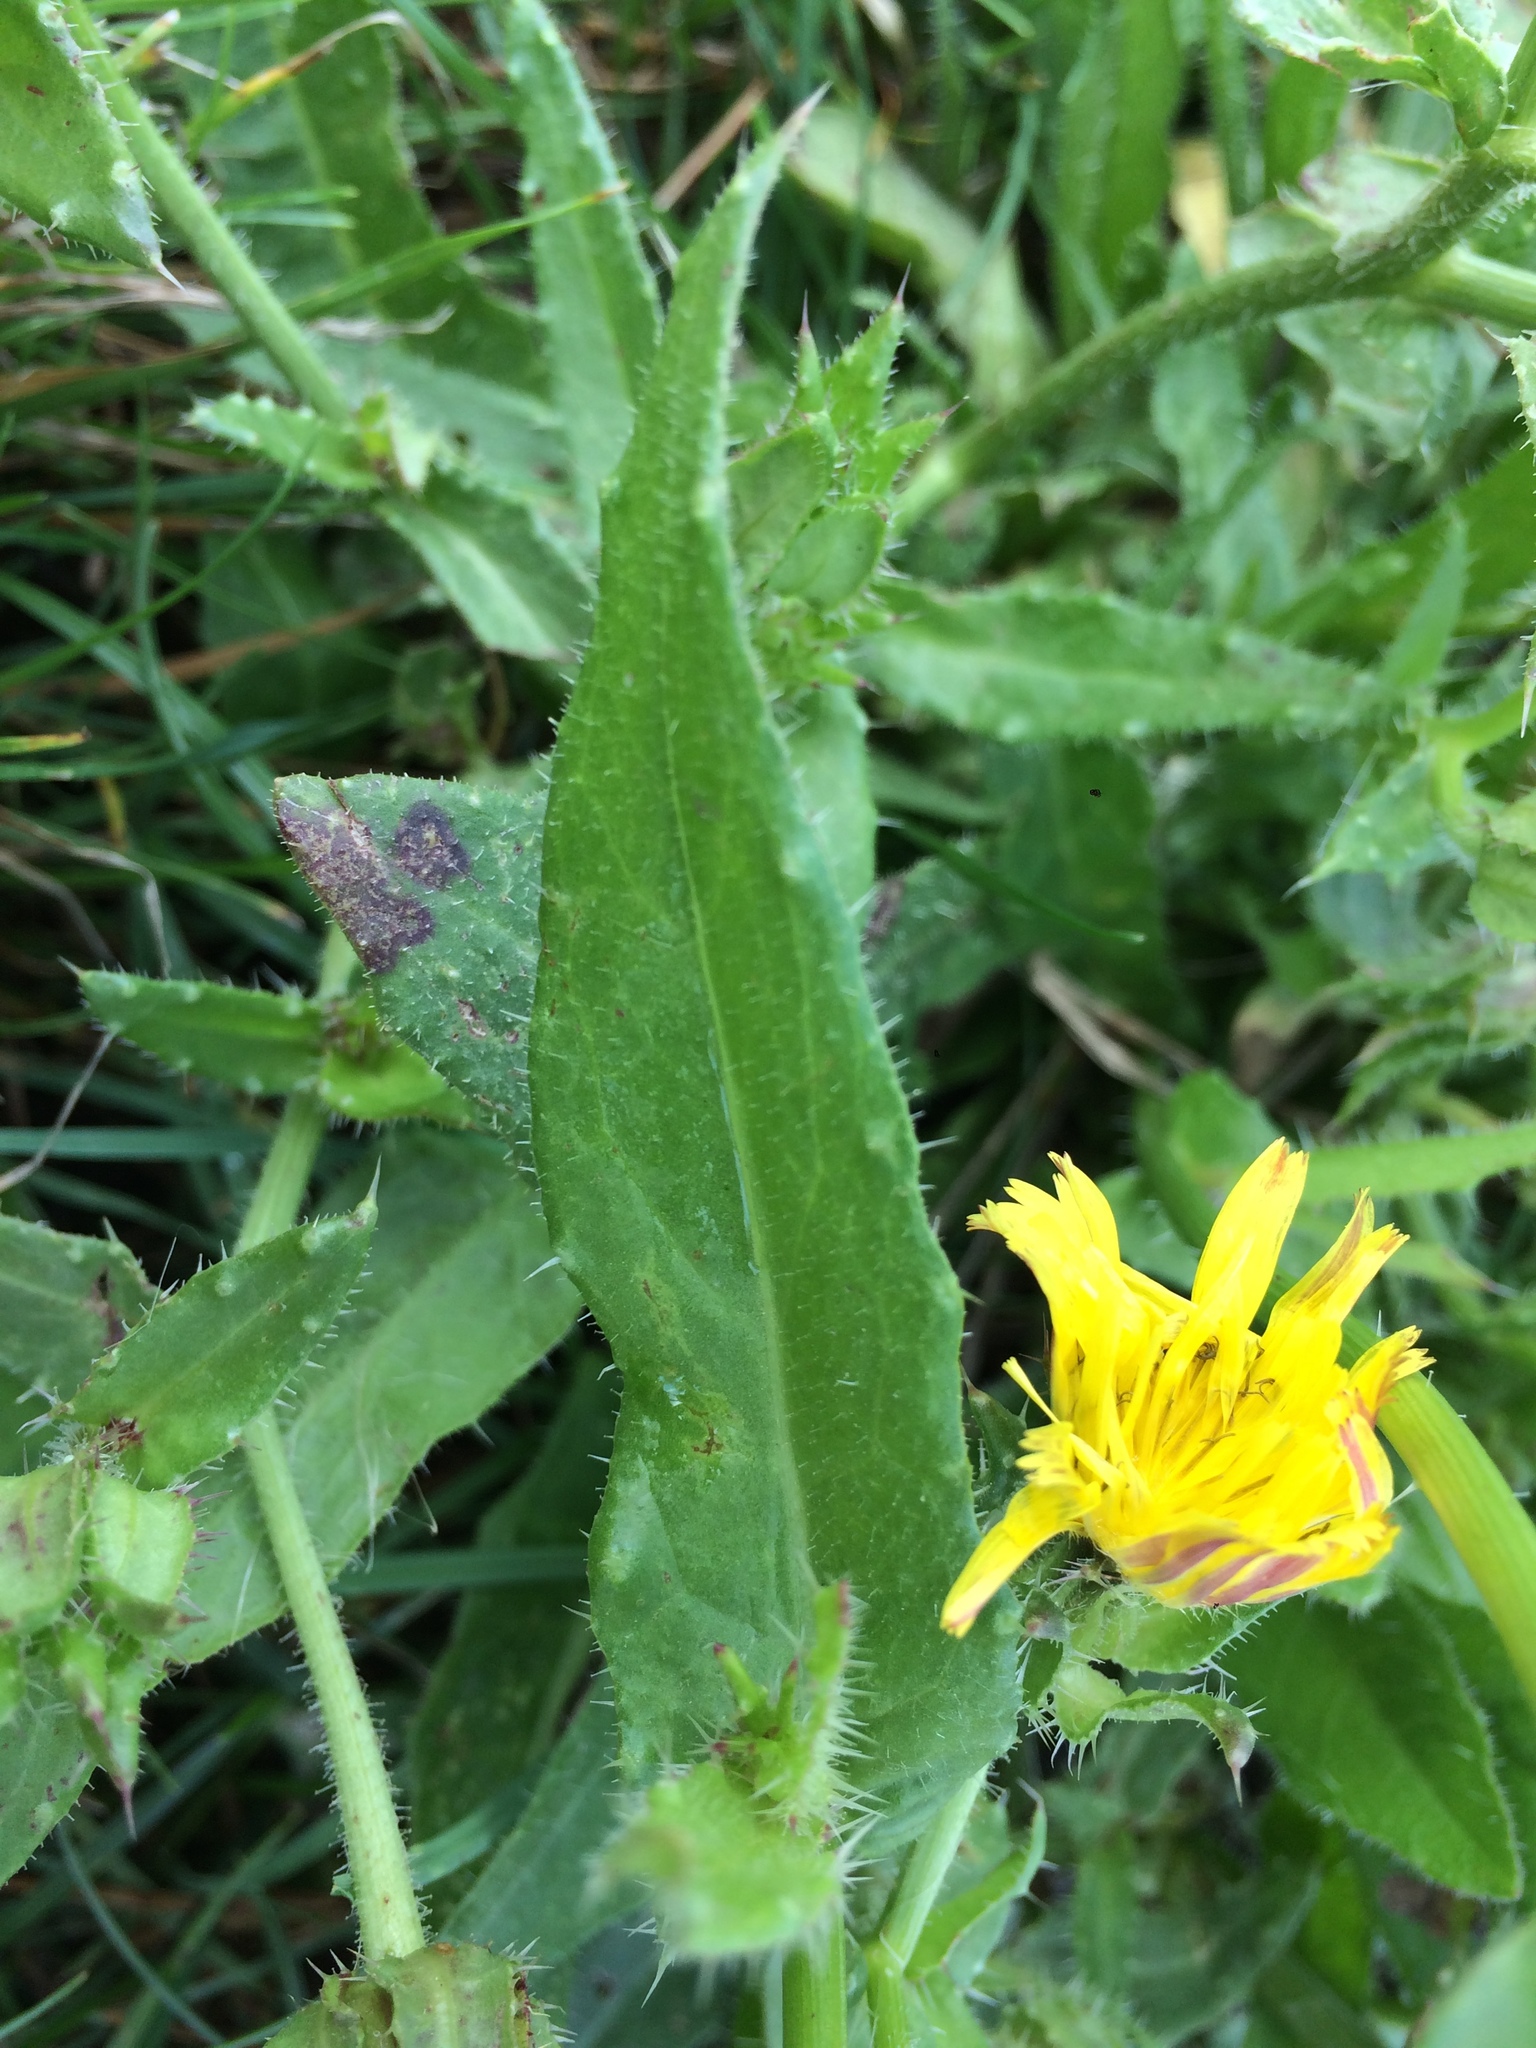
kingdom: Plantae
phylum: Tracheophyta
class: Magnoliopsida
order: Asterales
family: Asteraceae
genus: Helminthotheca
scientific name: Helminthotheca echioides
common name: Ox-tongue
